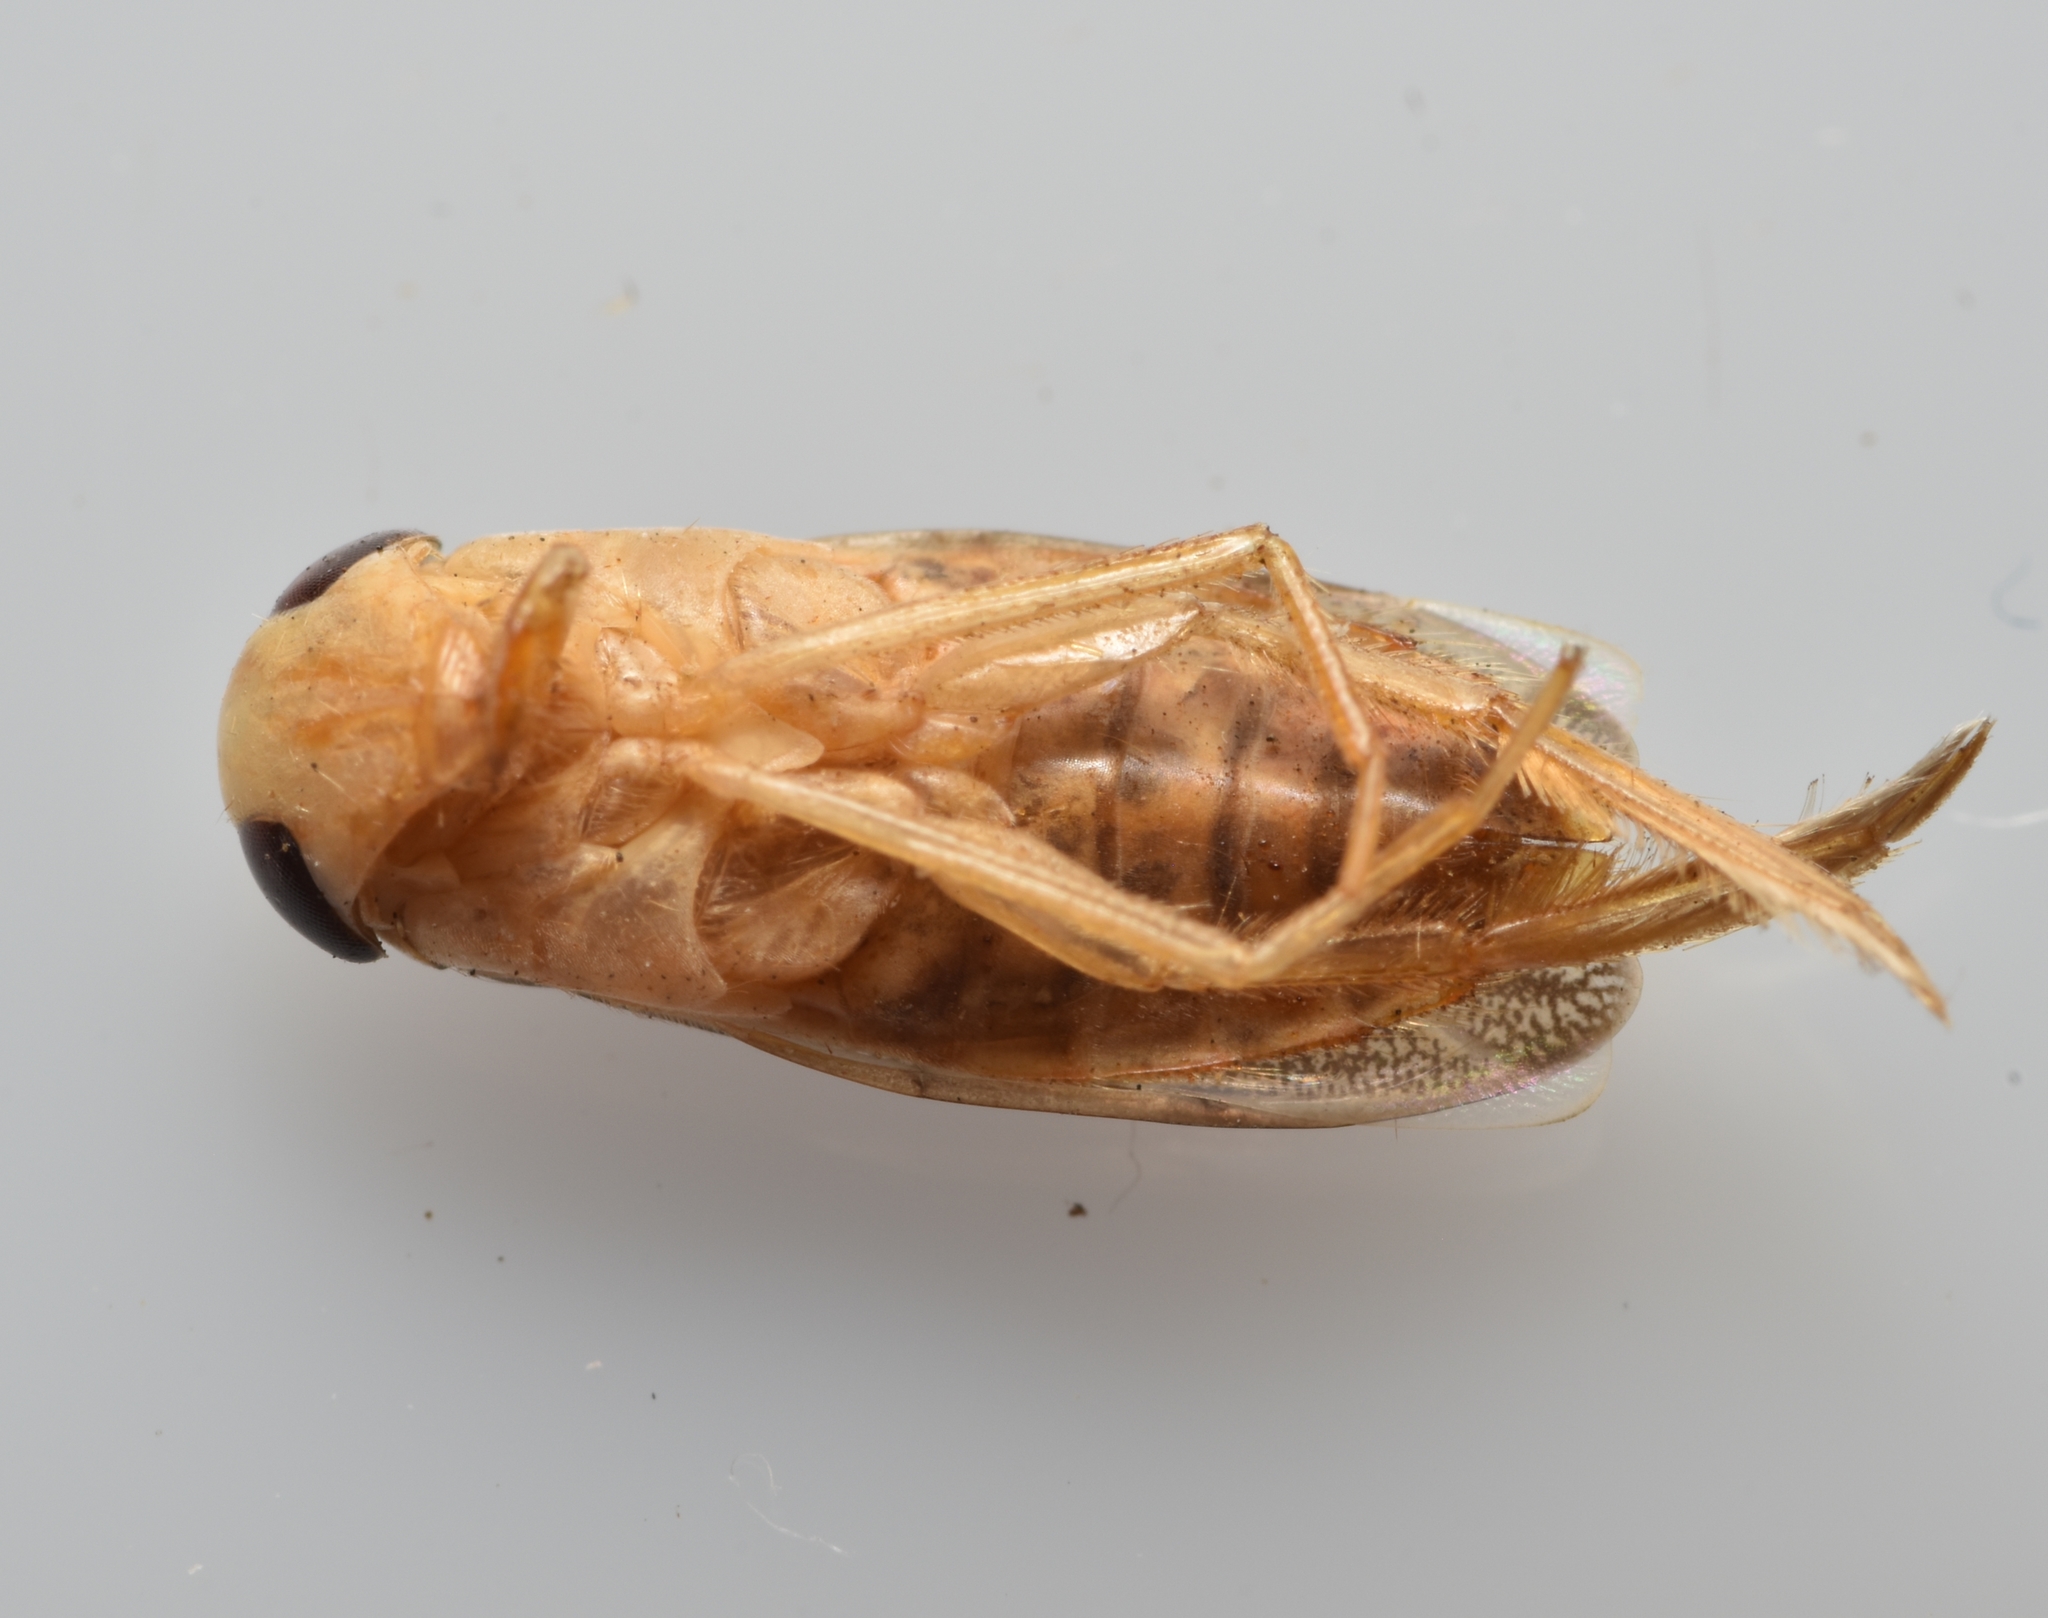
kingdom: Animalia
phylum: Arthropoda
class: Insecta
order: Hemiptera
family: Corixidae
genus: Corisella
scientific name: Corisella
